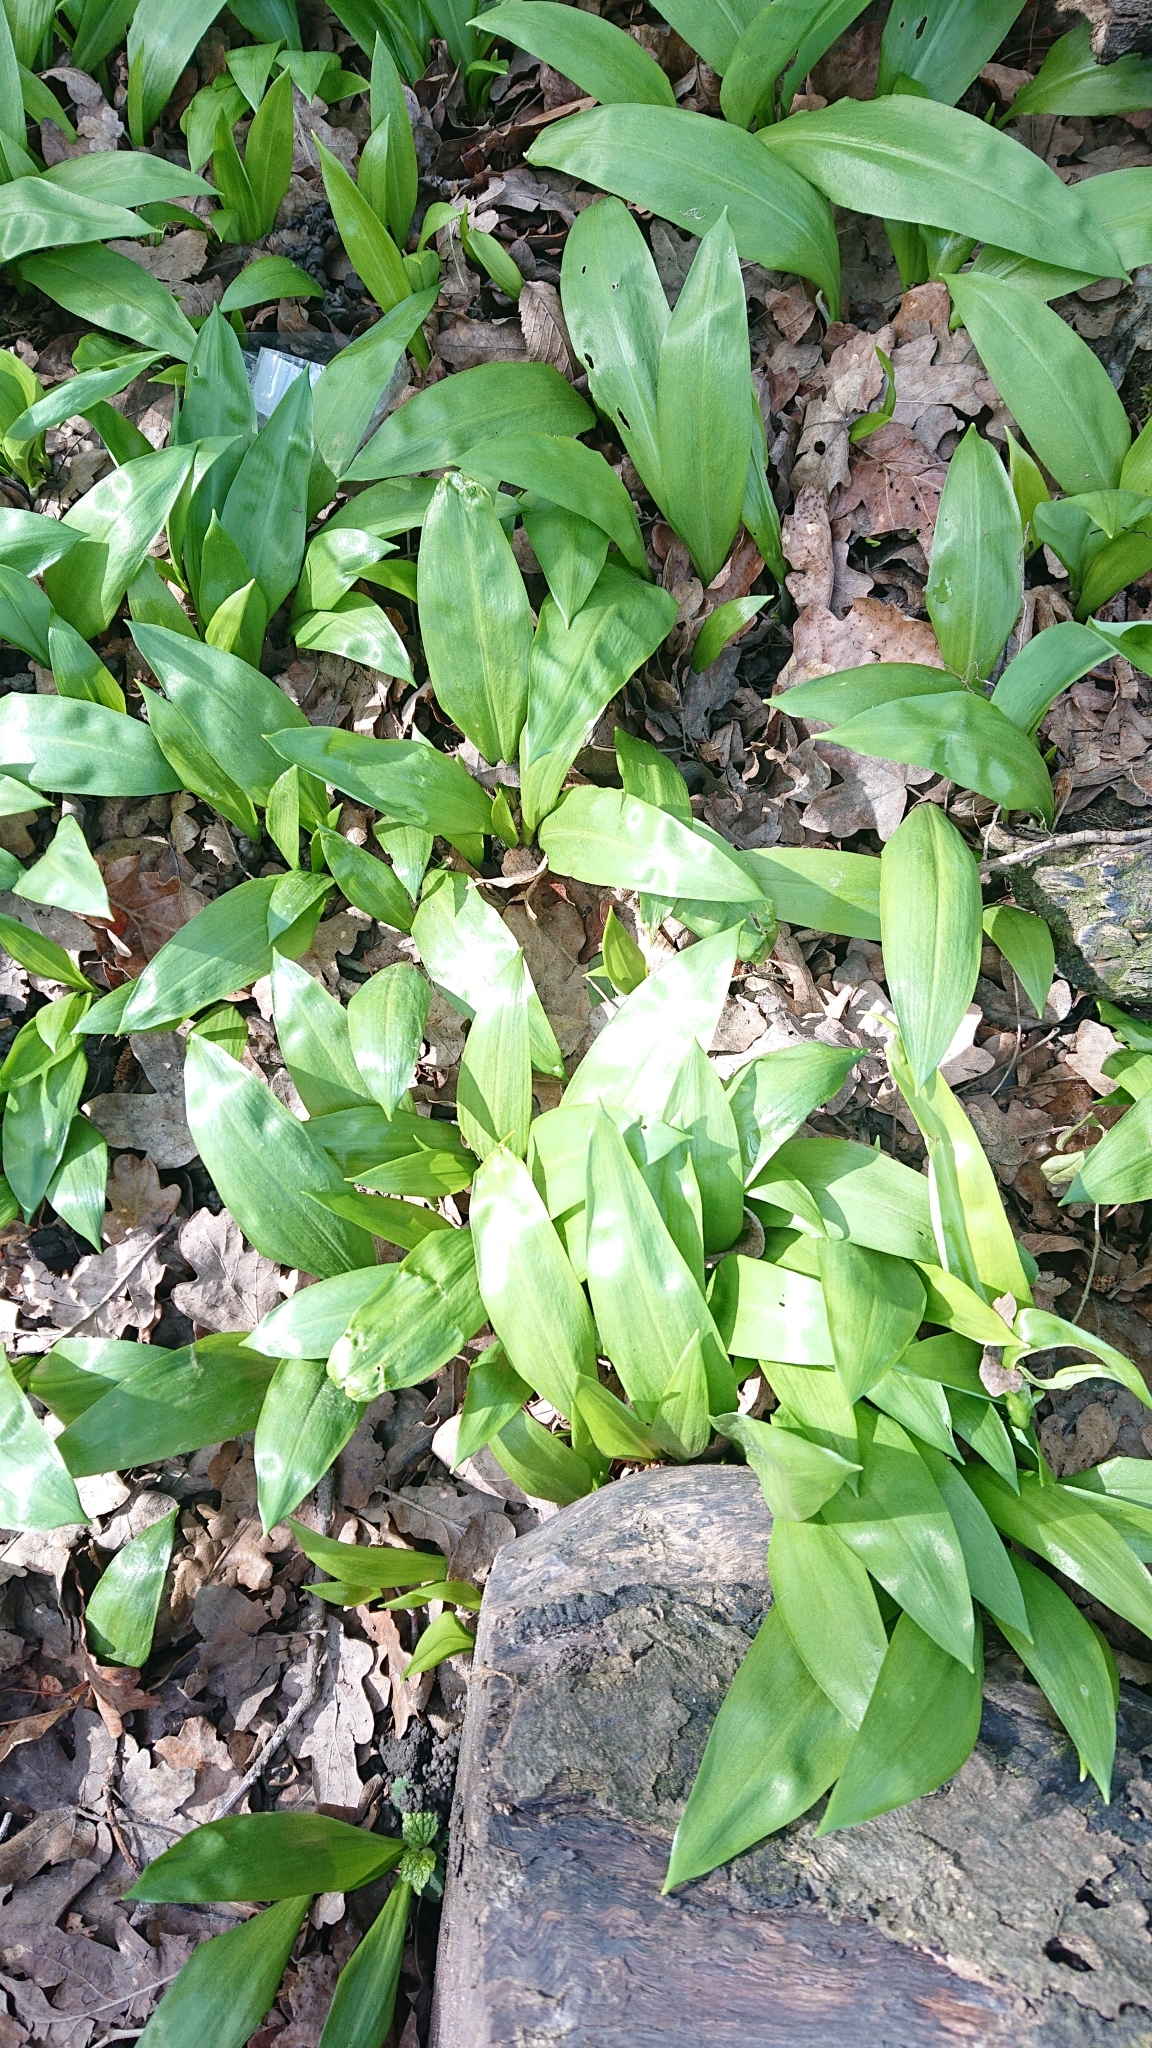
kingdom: Plantae
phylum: Tracheophyta
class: Liliopsida
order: Asparagales
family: Amaryllidaceae
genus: Allium
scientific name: Allium ursinum
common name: Ramsons
